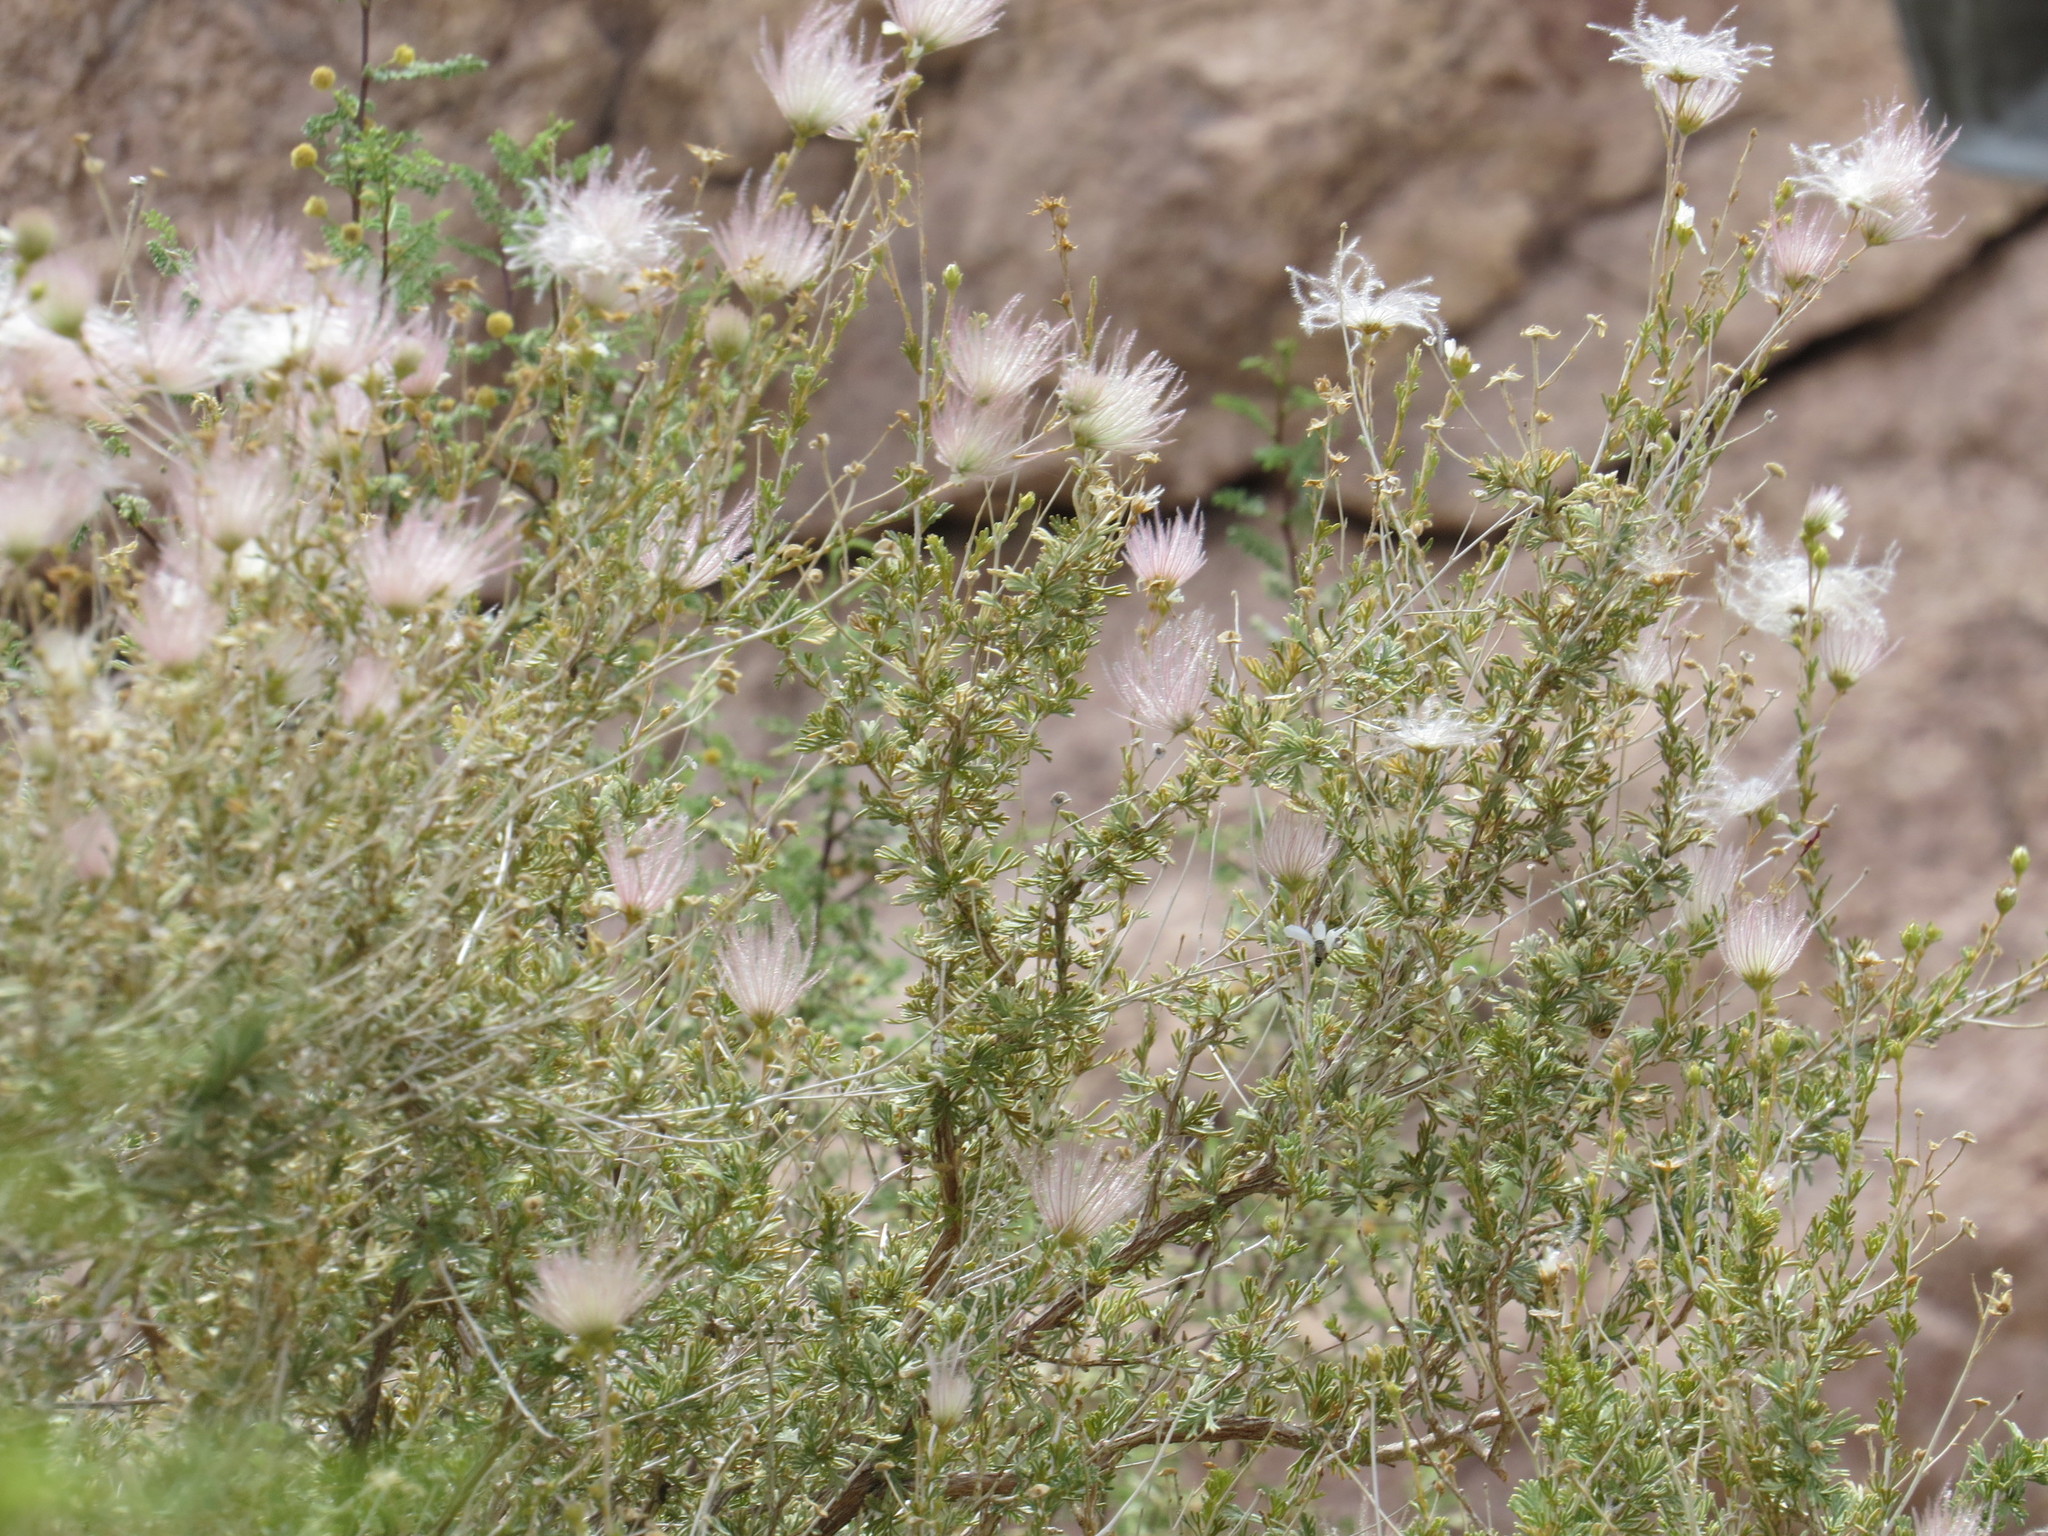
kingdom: Plantae
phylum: Tracheophyta
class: Magnoliopsida
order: Rosales
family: Rosaceae
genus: Fallugia
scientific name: Fallugia paradoxa
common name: Apache-plume
